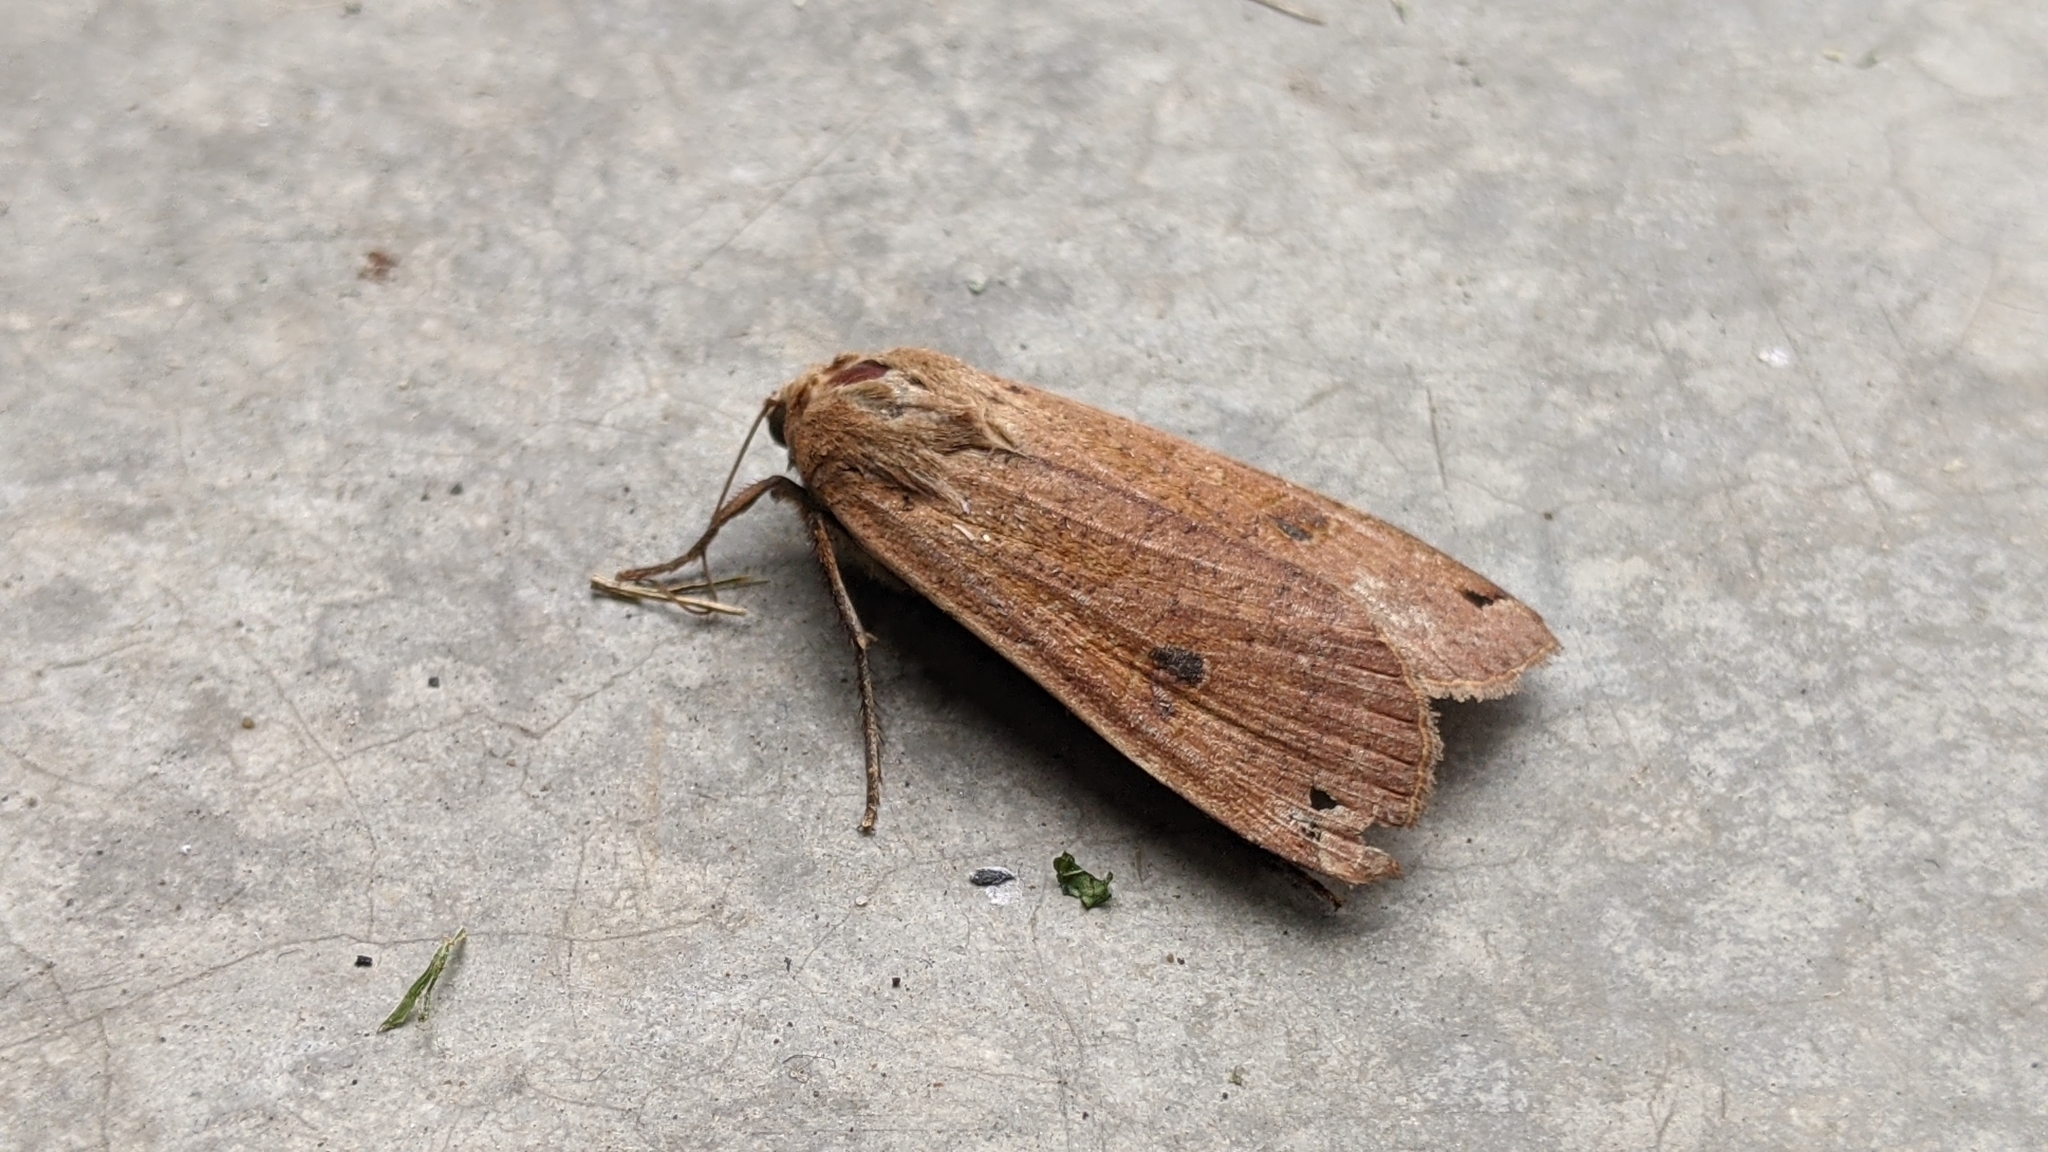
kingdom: Animalia
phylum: Arthropoda
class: Insecta
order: Lepidoptera
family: Noctuidae
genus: Noctua
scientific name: Noctua pronuba
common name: Large yellow underwing
